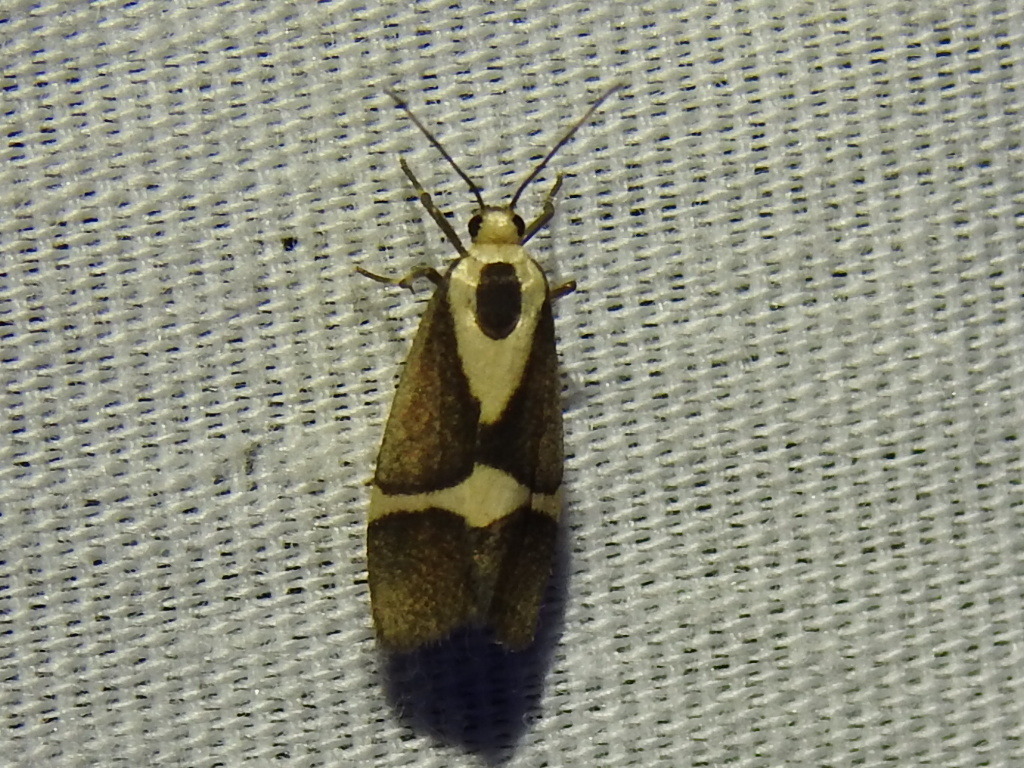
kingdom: Animalia
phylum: Arthropoda
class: Insecta
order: Lepidoptera
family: Erebidae
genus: Cisthene
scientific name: Cisthene subrufa
